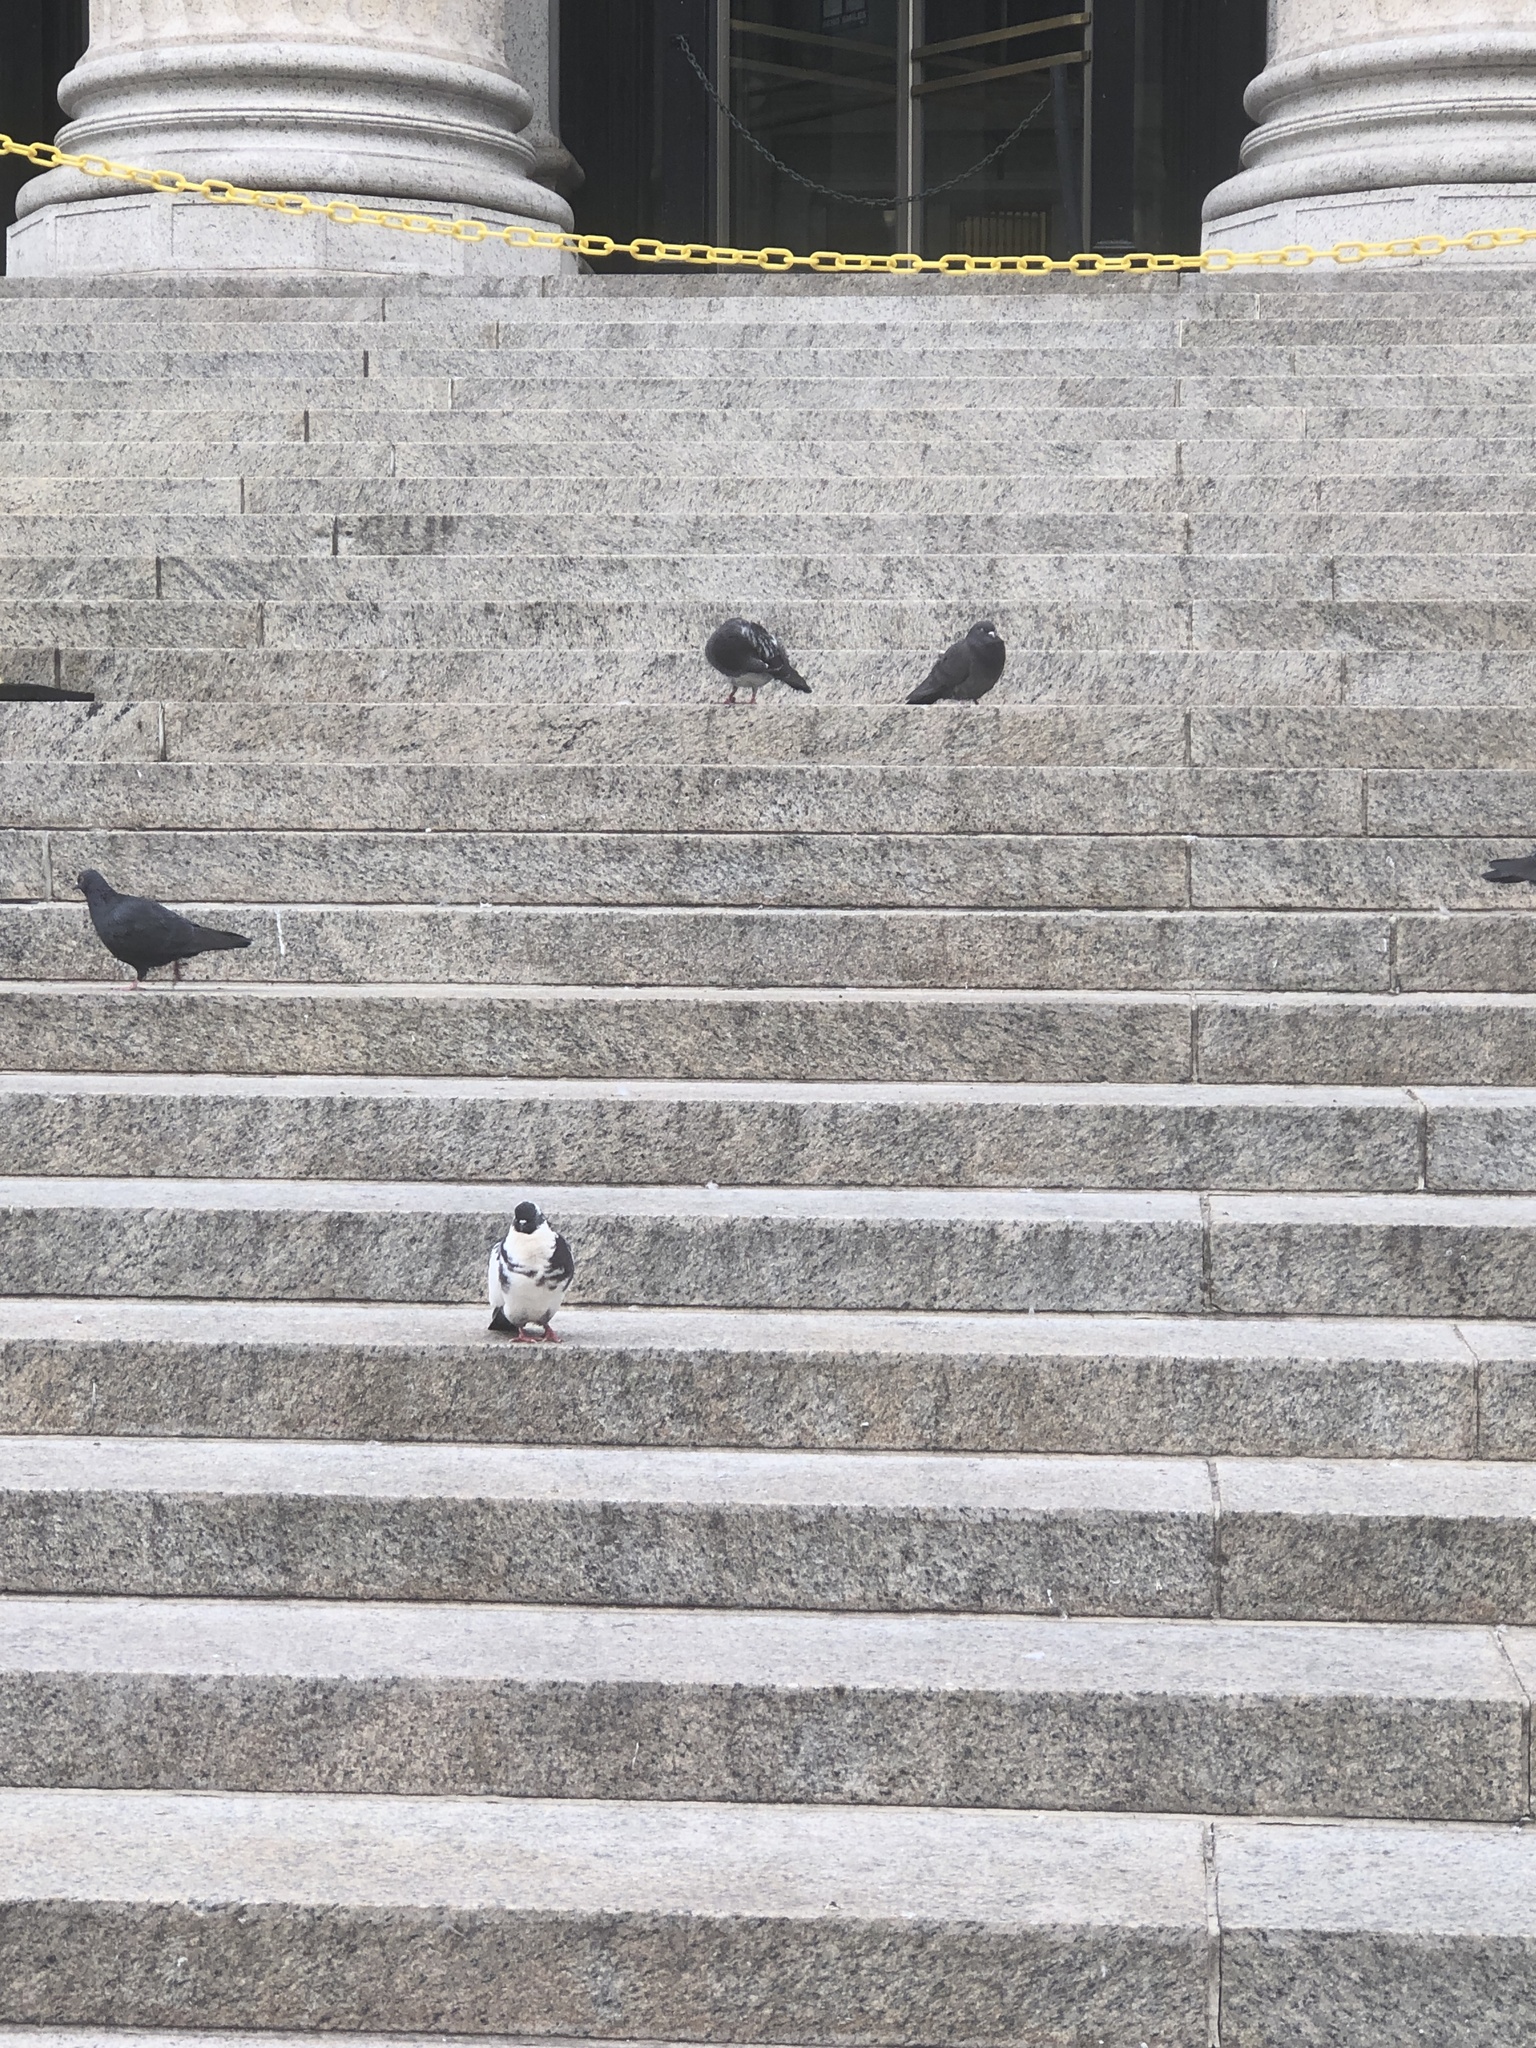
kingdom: Animalia
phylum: Chordata
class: Aves
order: Columbiformes
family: Columbidae
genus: Columba
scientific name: Columba livia
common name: Rock pigeon
